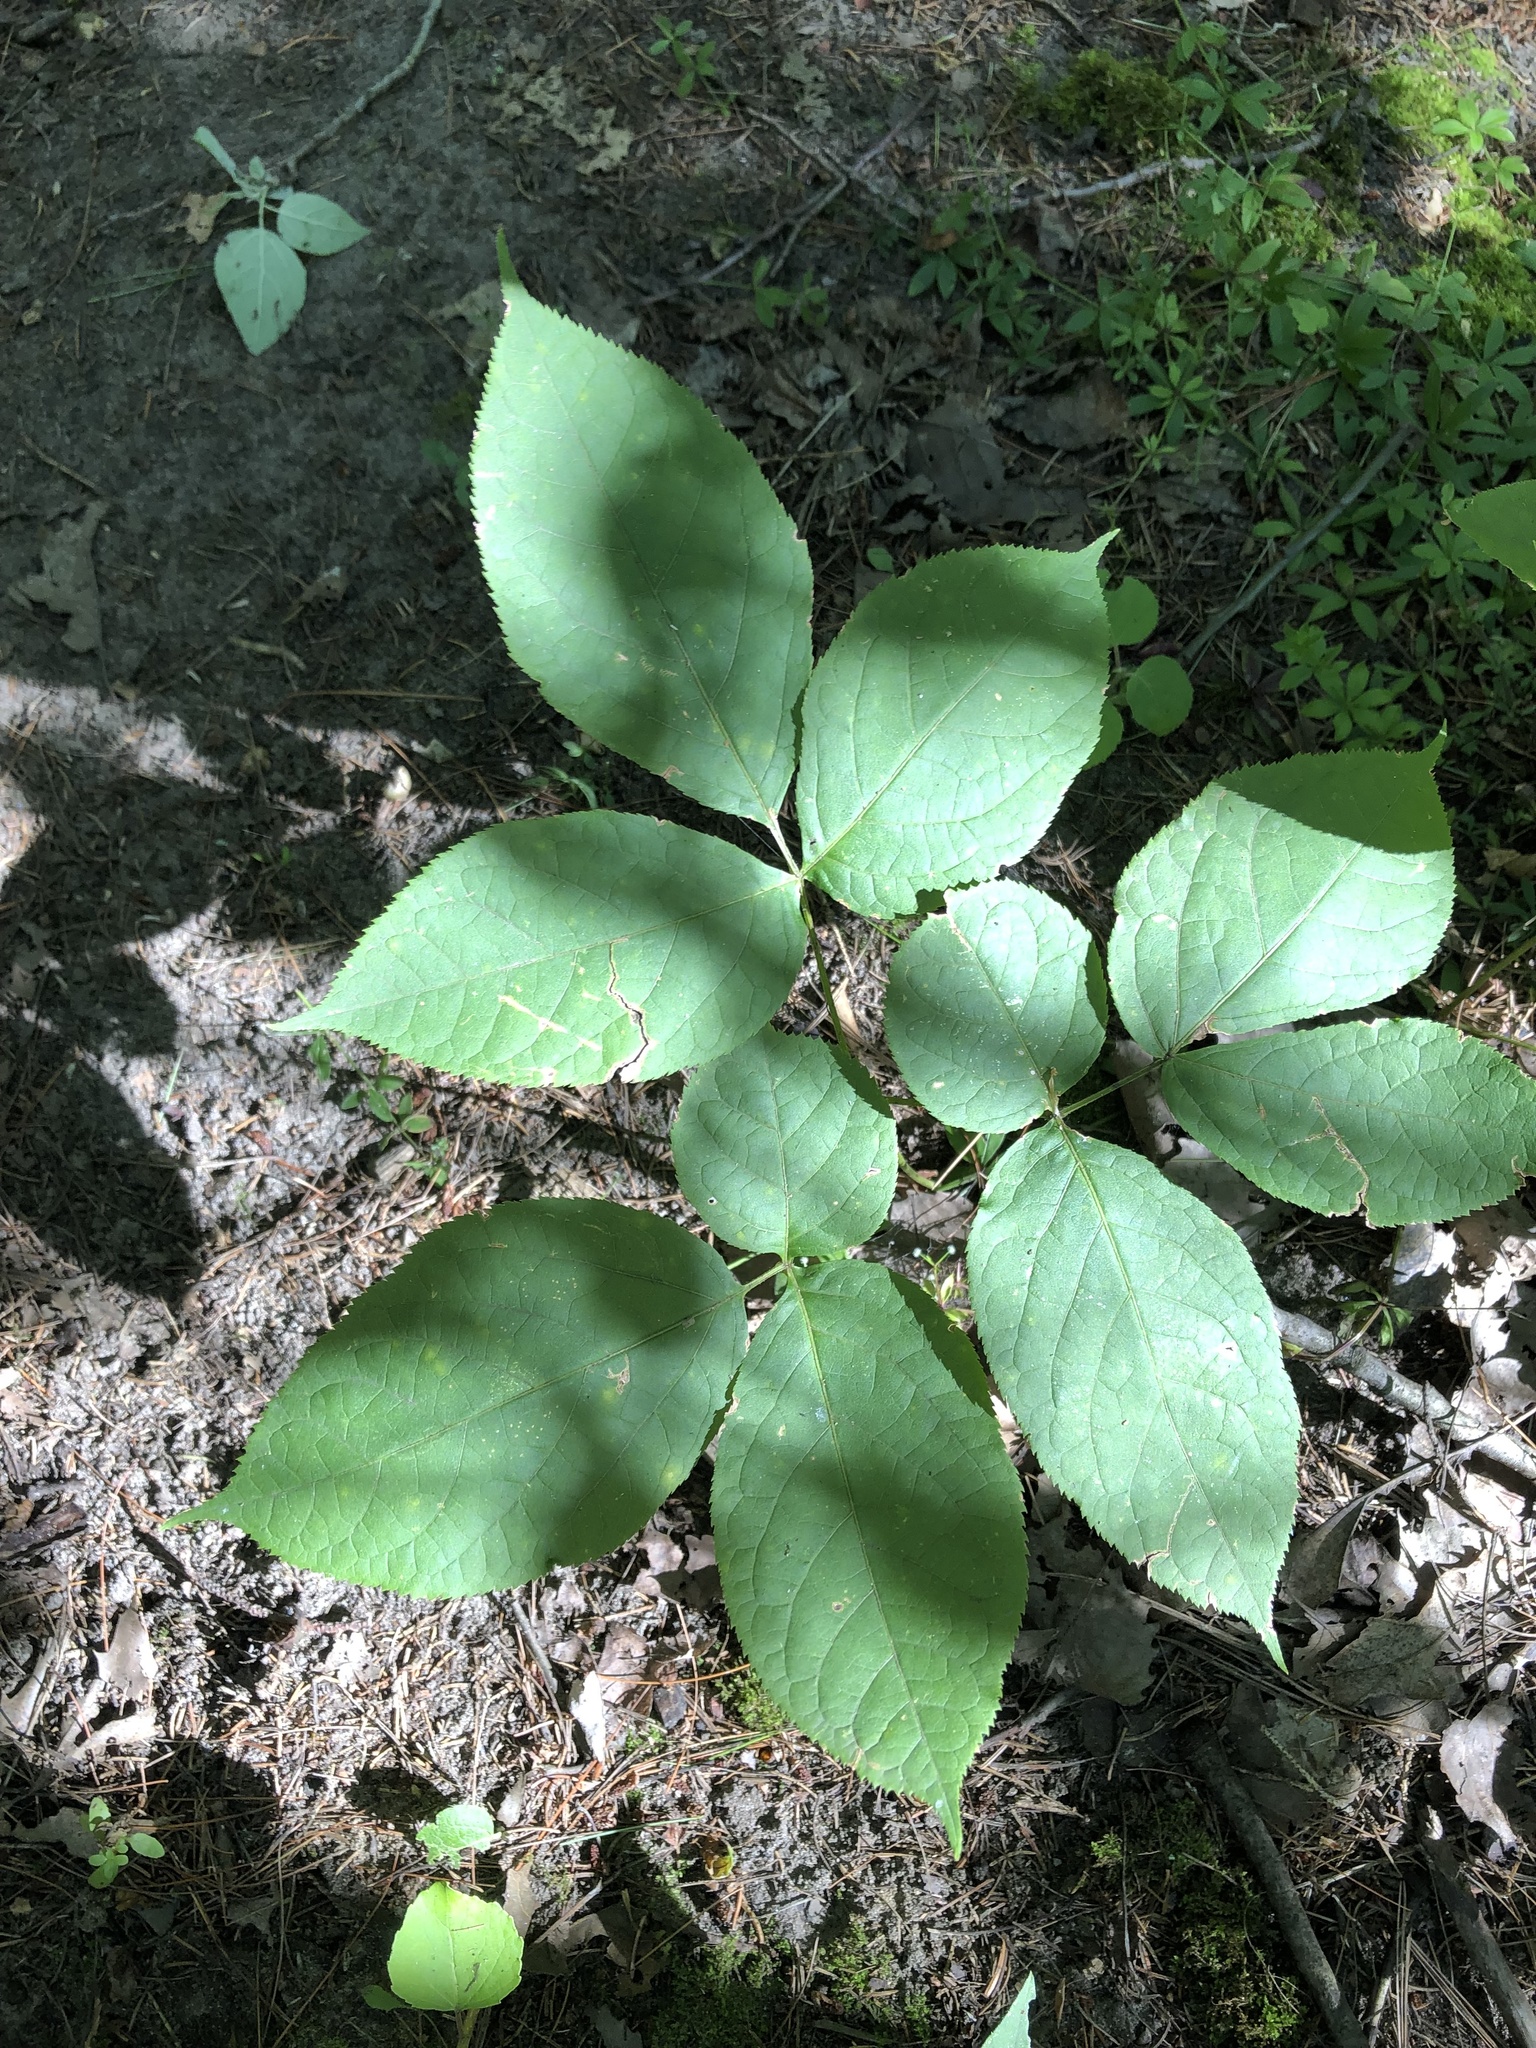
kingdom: Plantae
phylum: Tracheophyta
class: Magnoliopsida
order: Apiales
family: Araliaceae
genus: Aralia
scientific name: Aralia nudicaulis
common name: Wild sarsaparilla
